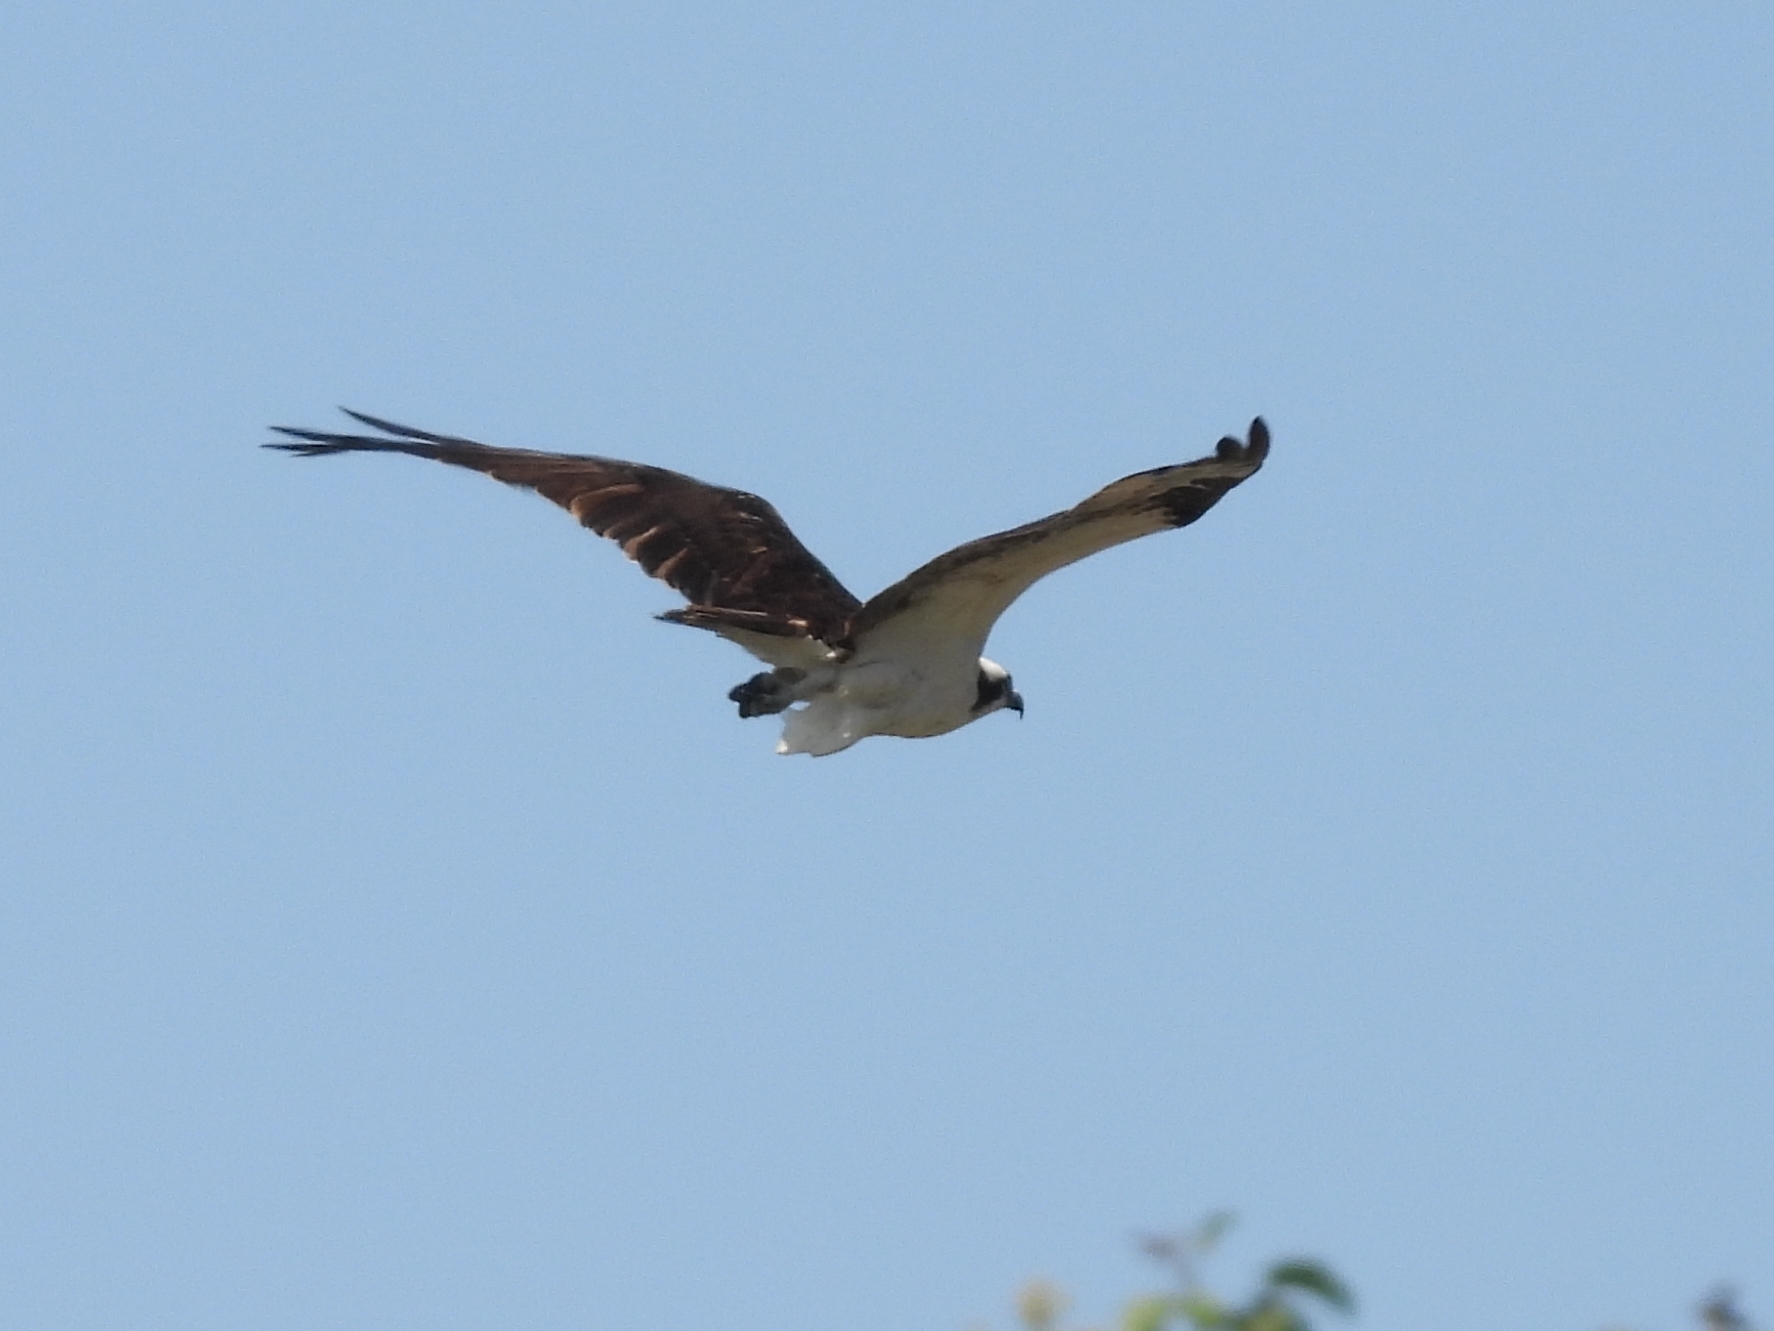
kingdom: Animalia
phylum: Chordata
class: Aves
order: Accipitriformes
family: Pandionidae
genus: Pandion
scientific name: Pandion haliaetus
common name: Osprey
